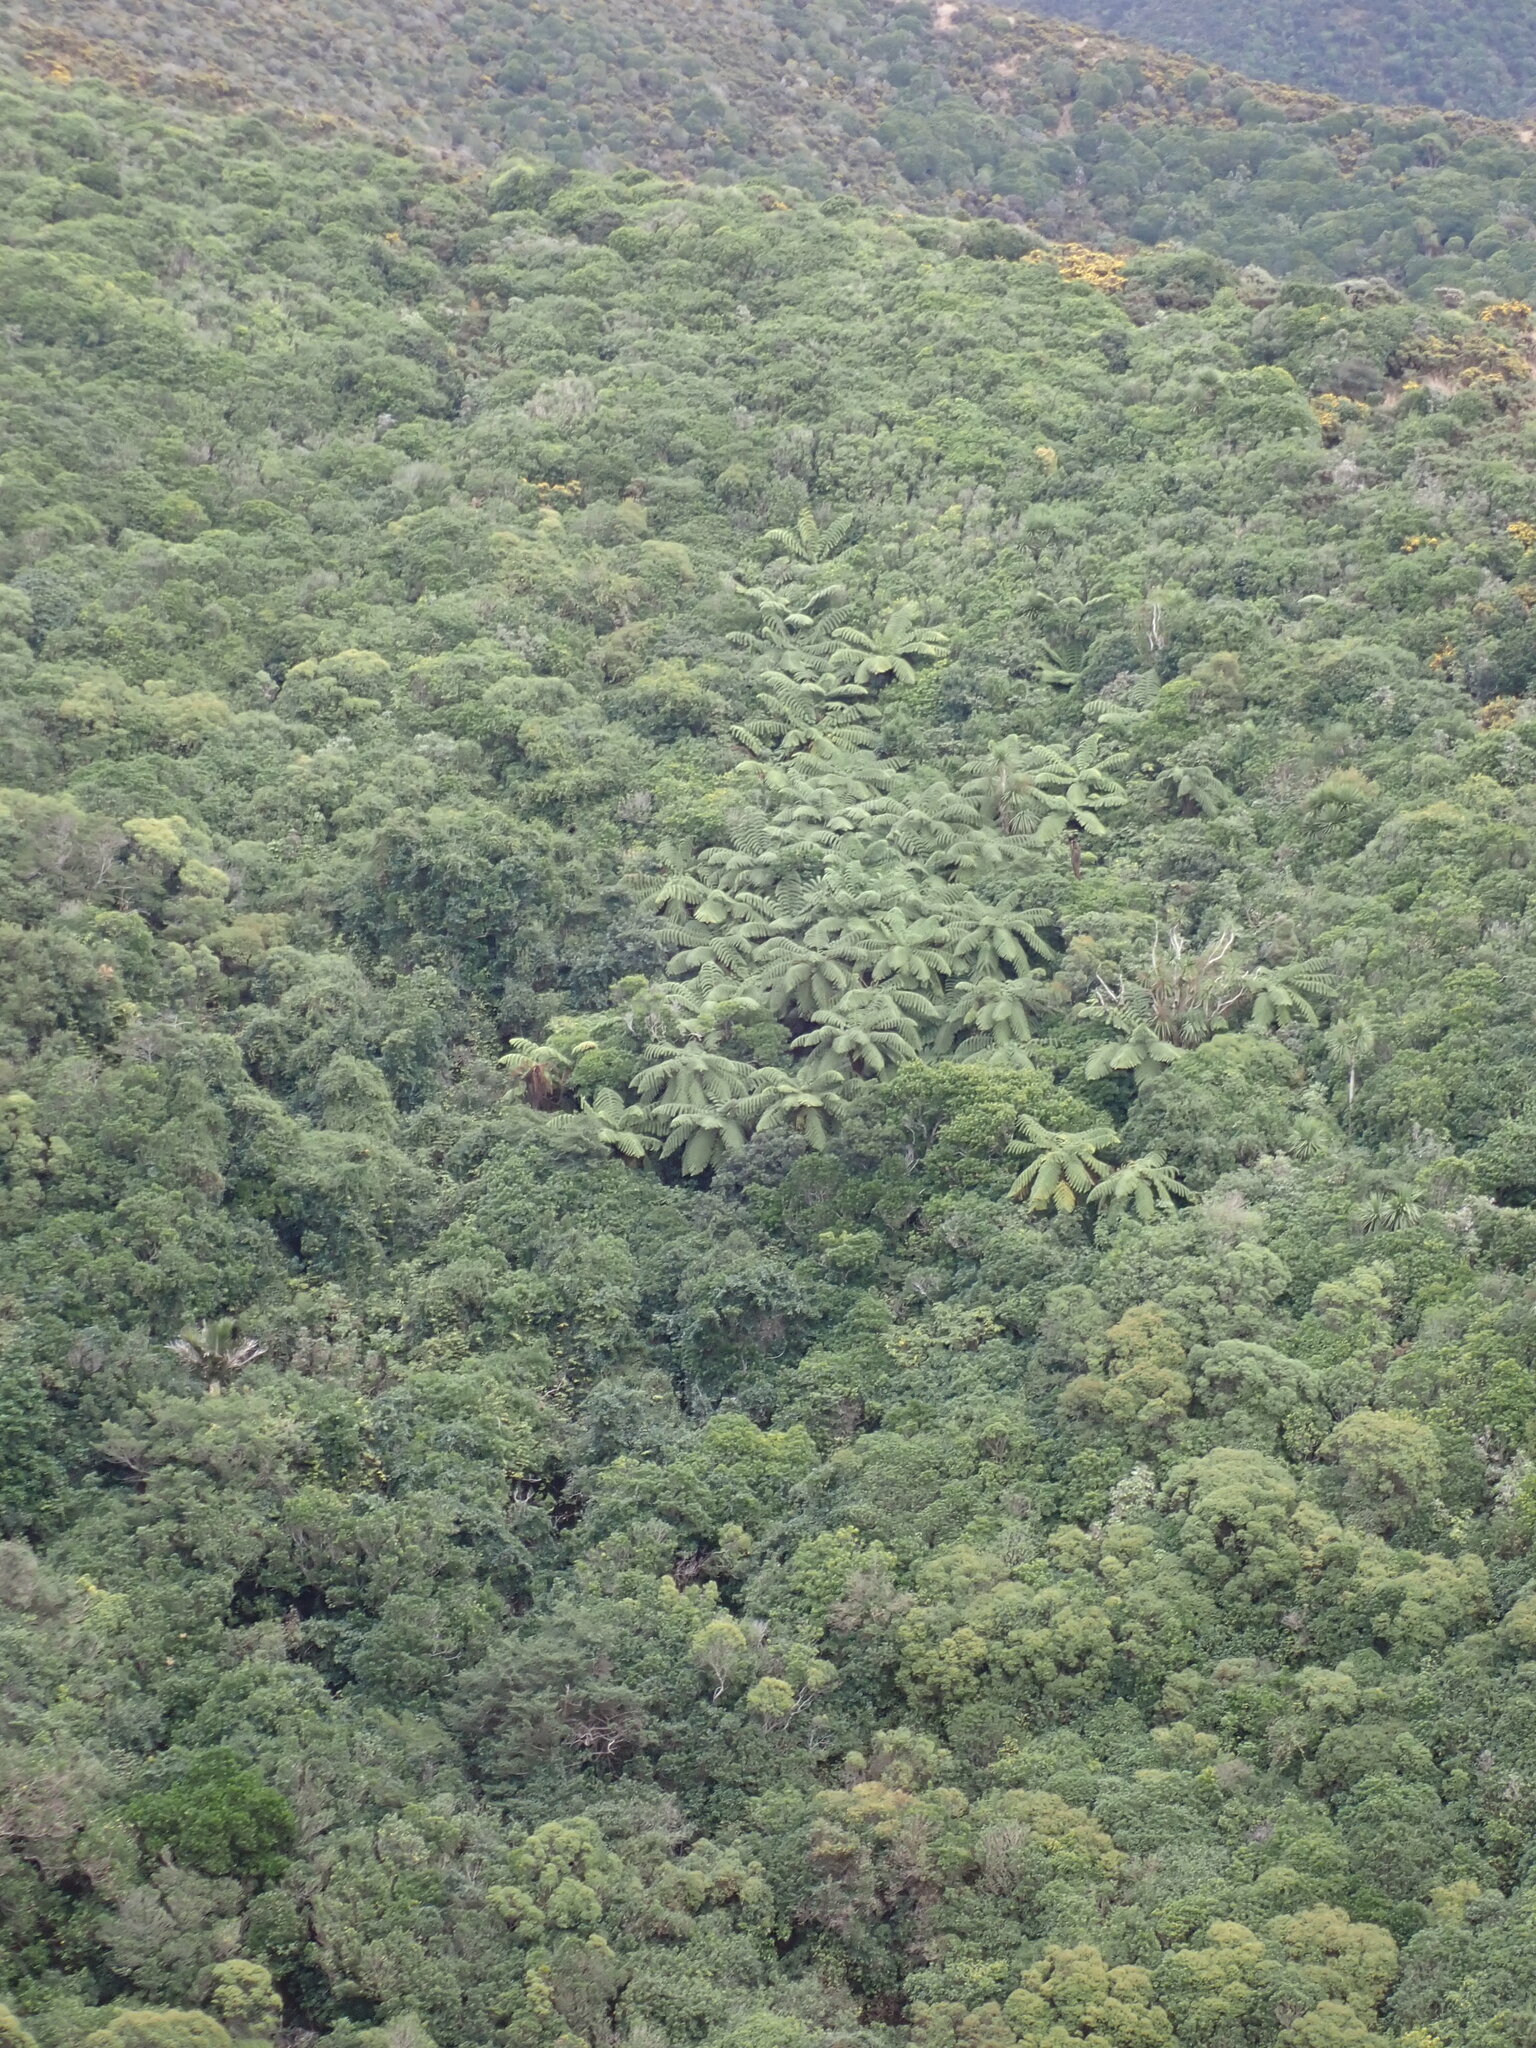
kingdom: Plantae
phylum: Tracheophyta
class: Polypodiopsida
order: Cyatheales
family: Cyatheaceae
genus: Sphaeropteris
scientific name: Sphaeropteris medullaris
